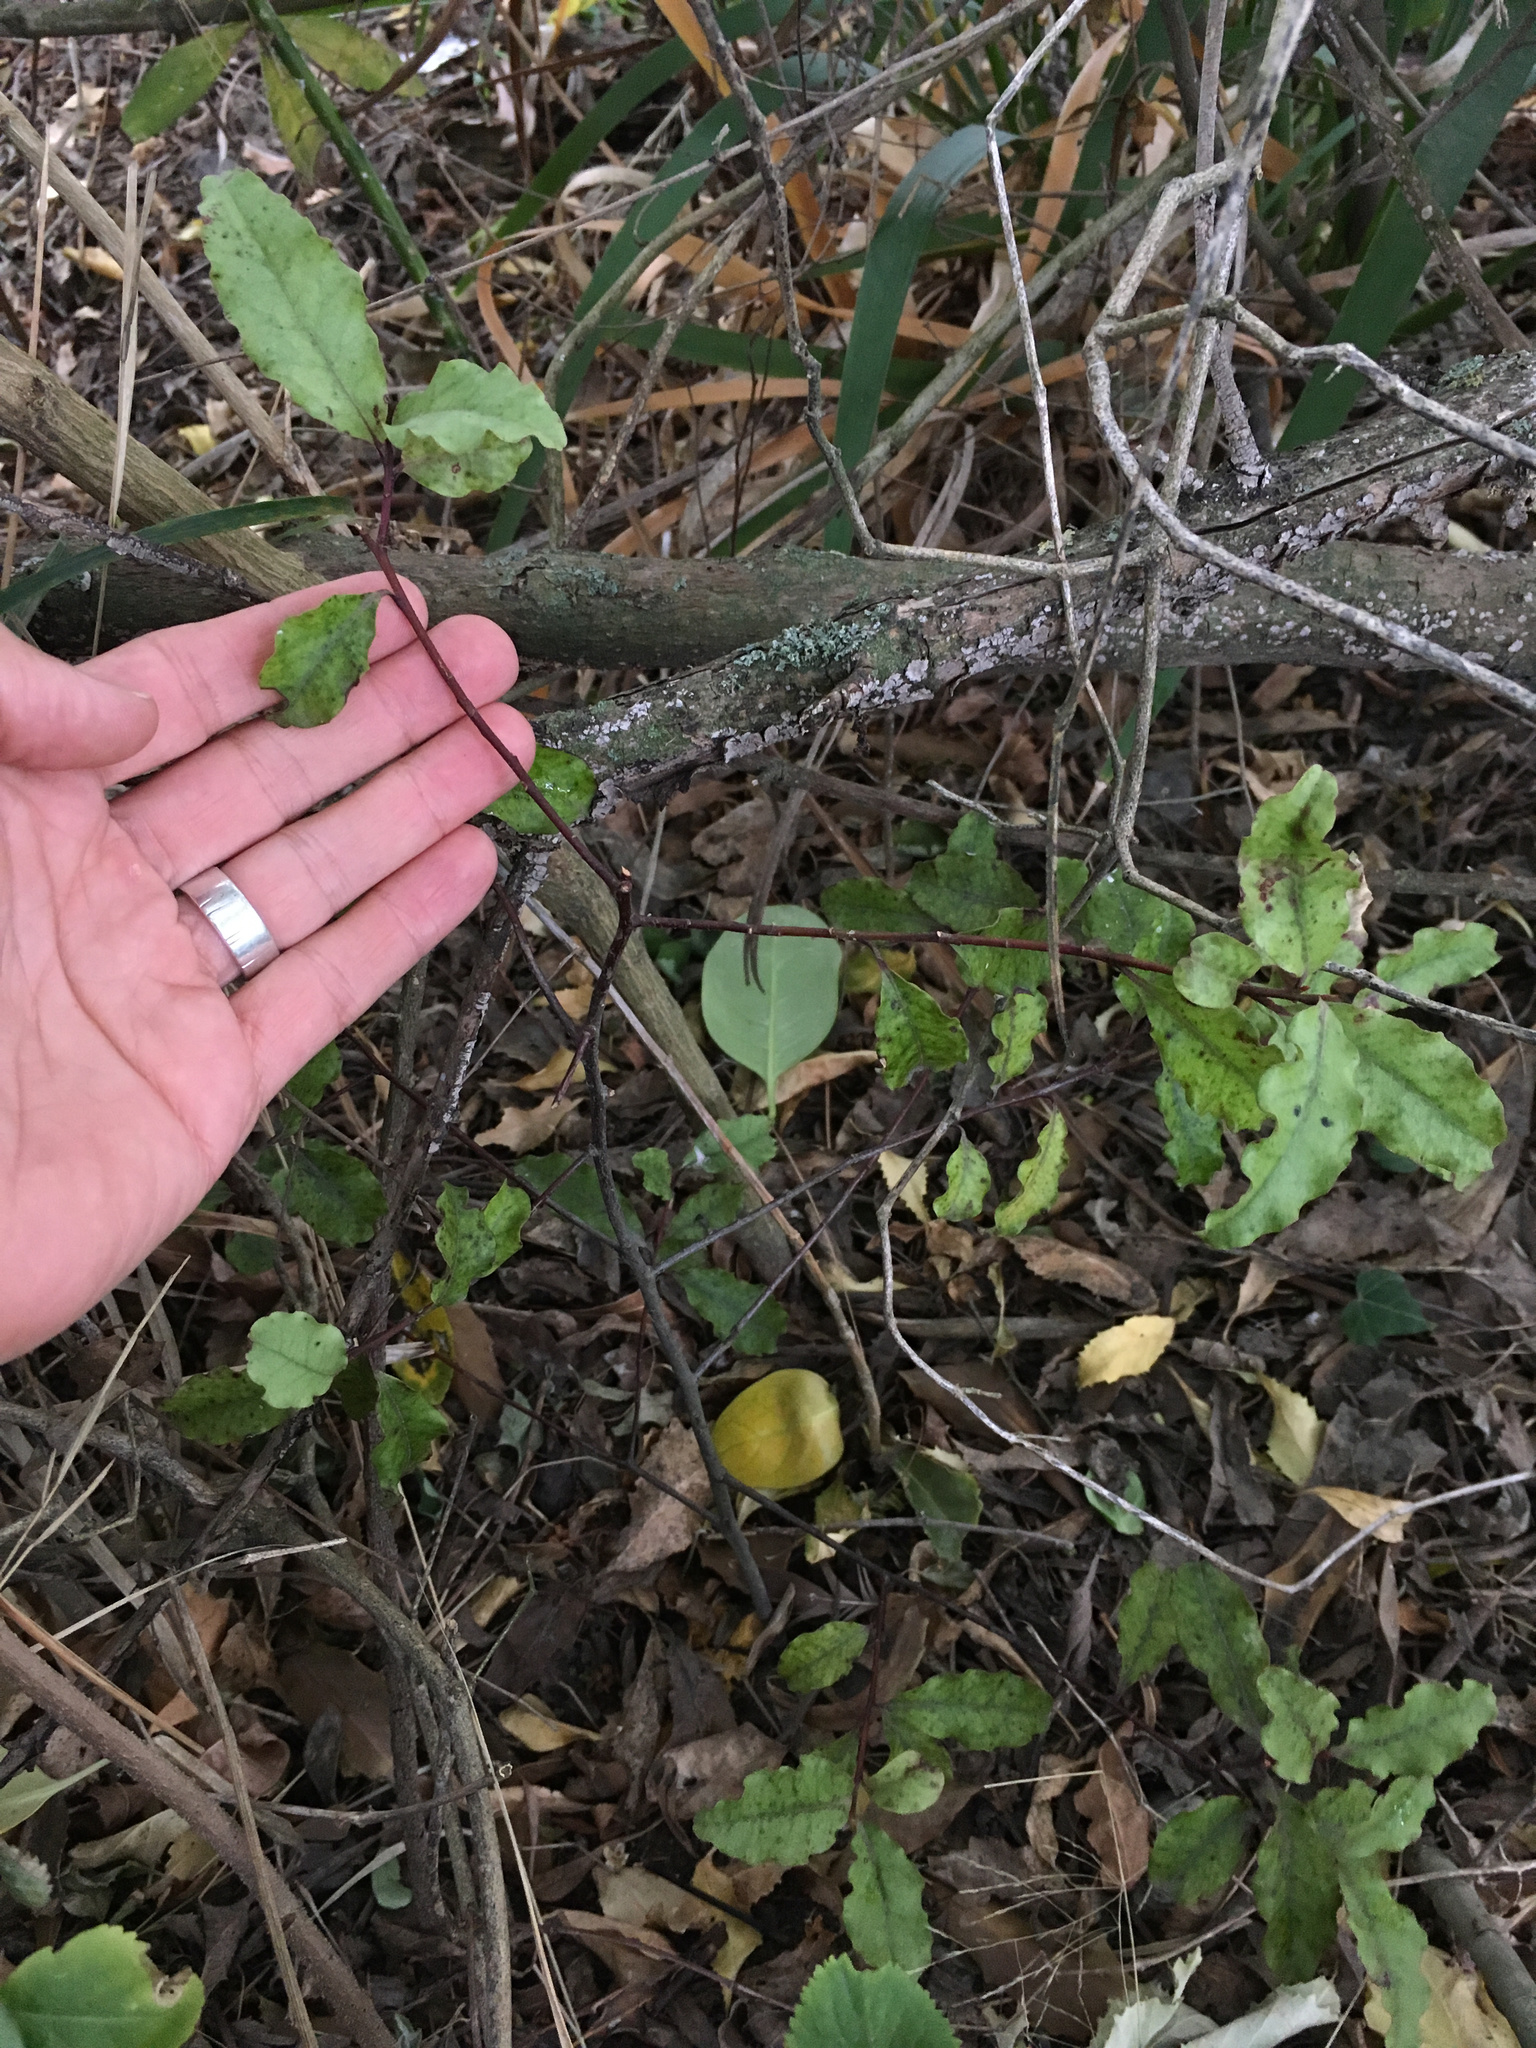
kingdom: Plantae
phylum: Tracheophyta
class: Magnoliopsida
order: Ericales
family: Primulaceae
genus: Myrsine
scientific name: Myrsine australis
